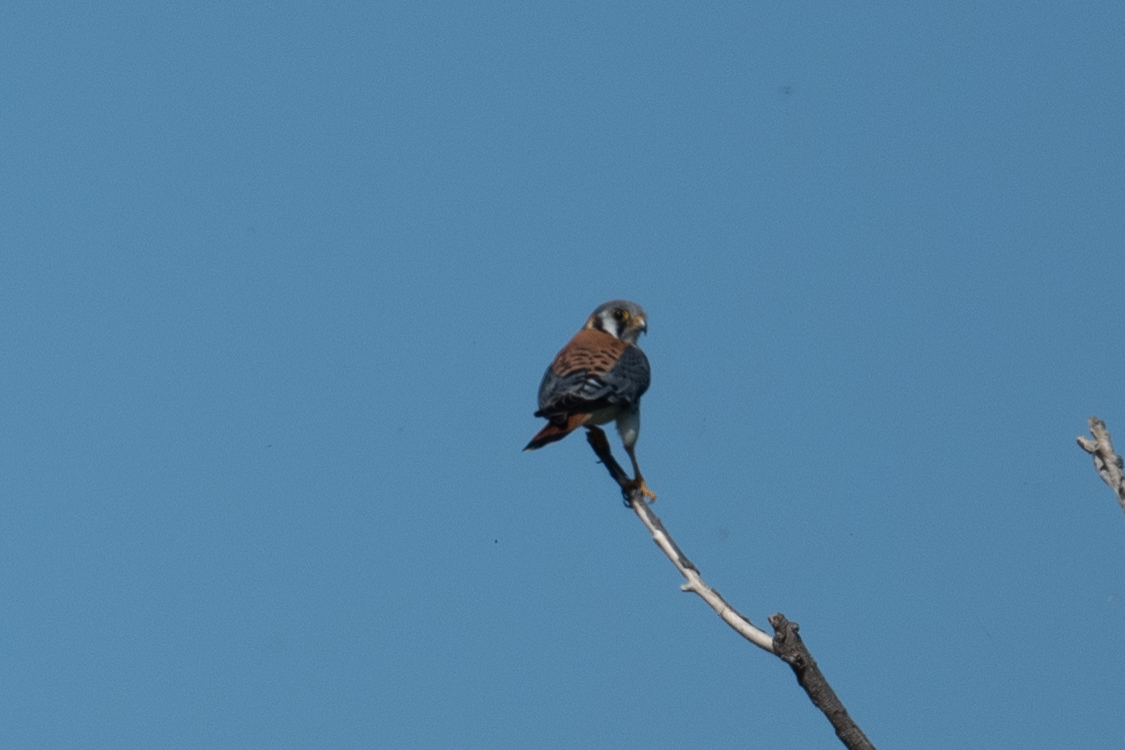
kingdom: Animalia
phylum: Chordata
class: Aves
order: Falconiformes
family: Falconidae
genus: Falco
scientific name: Falco sparverius
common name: American kestrel
